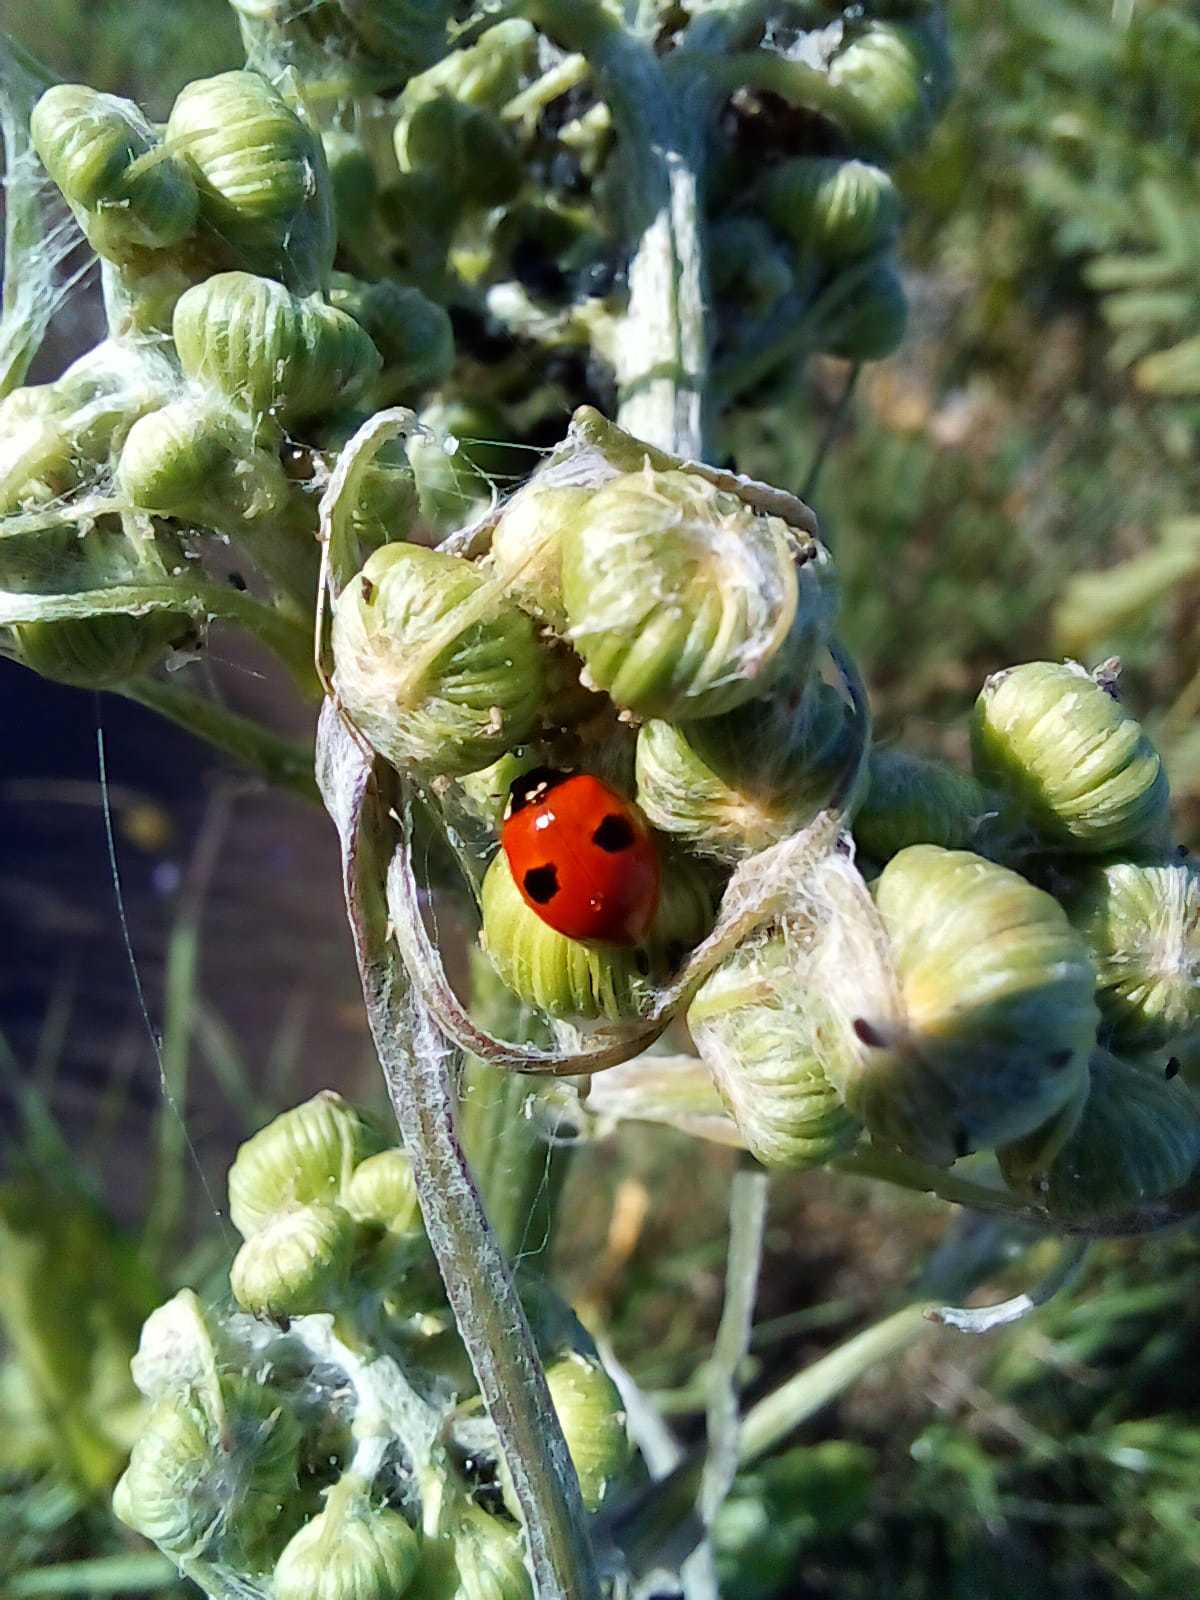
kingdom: Animalia
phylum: Arthropoda
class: Insecta
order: Coleoptera
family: Coccinellidae
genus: Adalia
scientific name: Adalia bipunctata
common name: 2-spot ladybird
